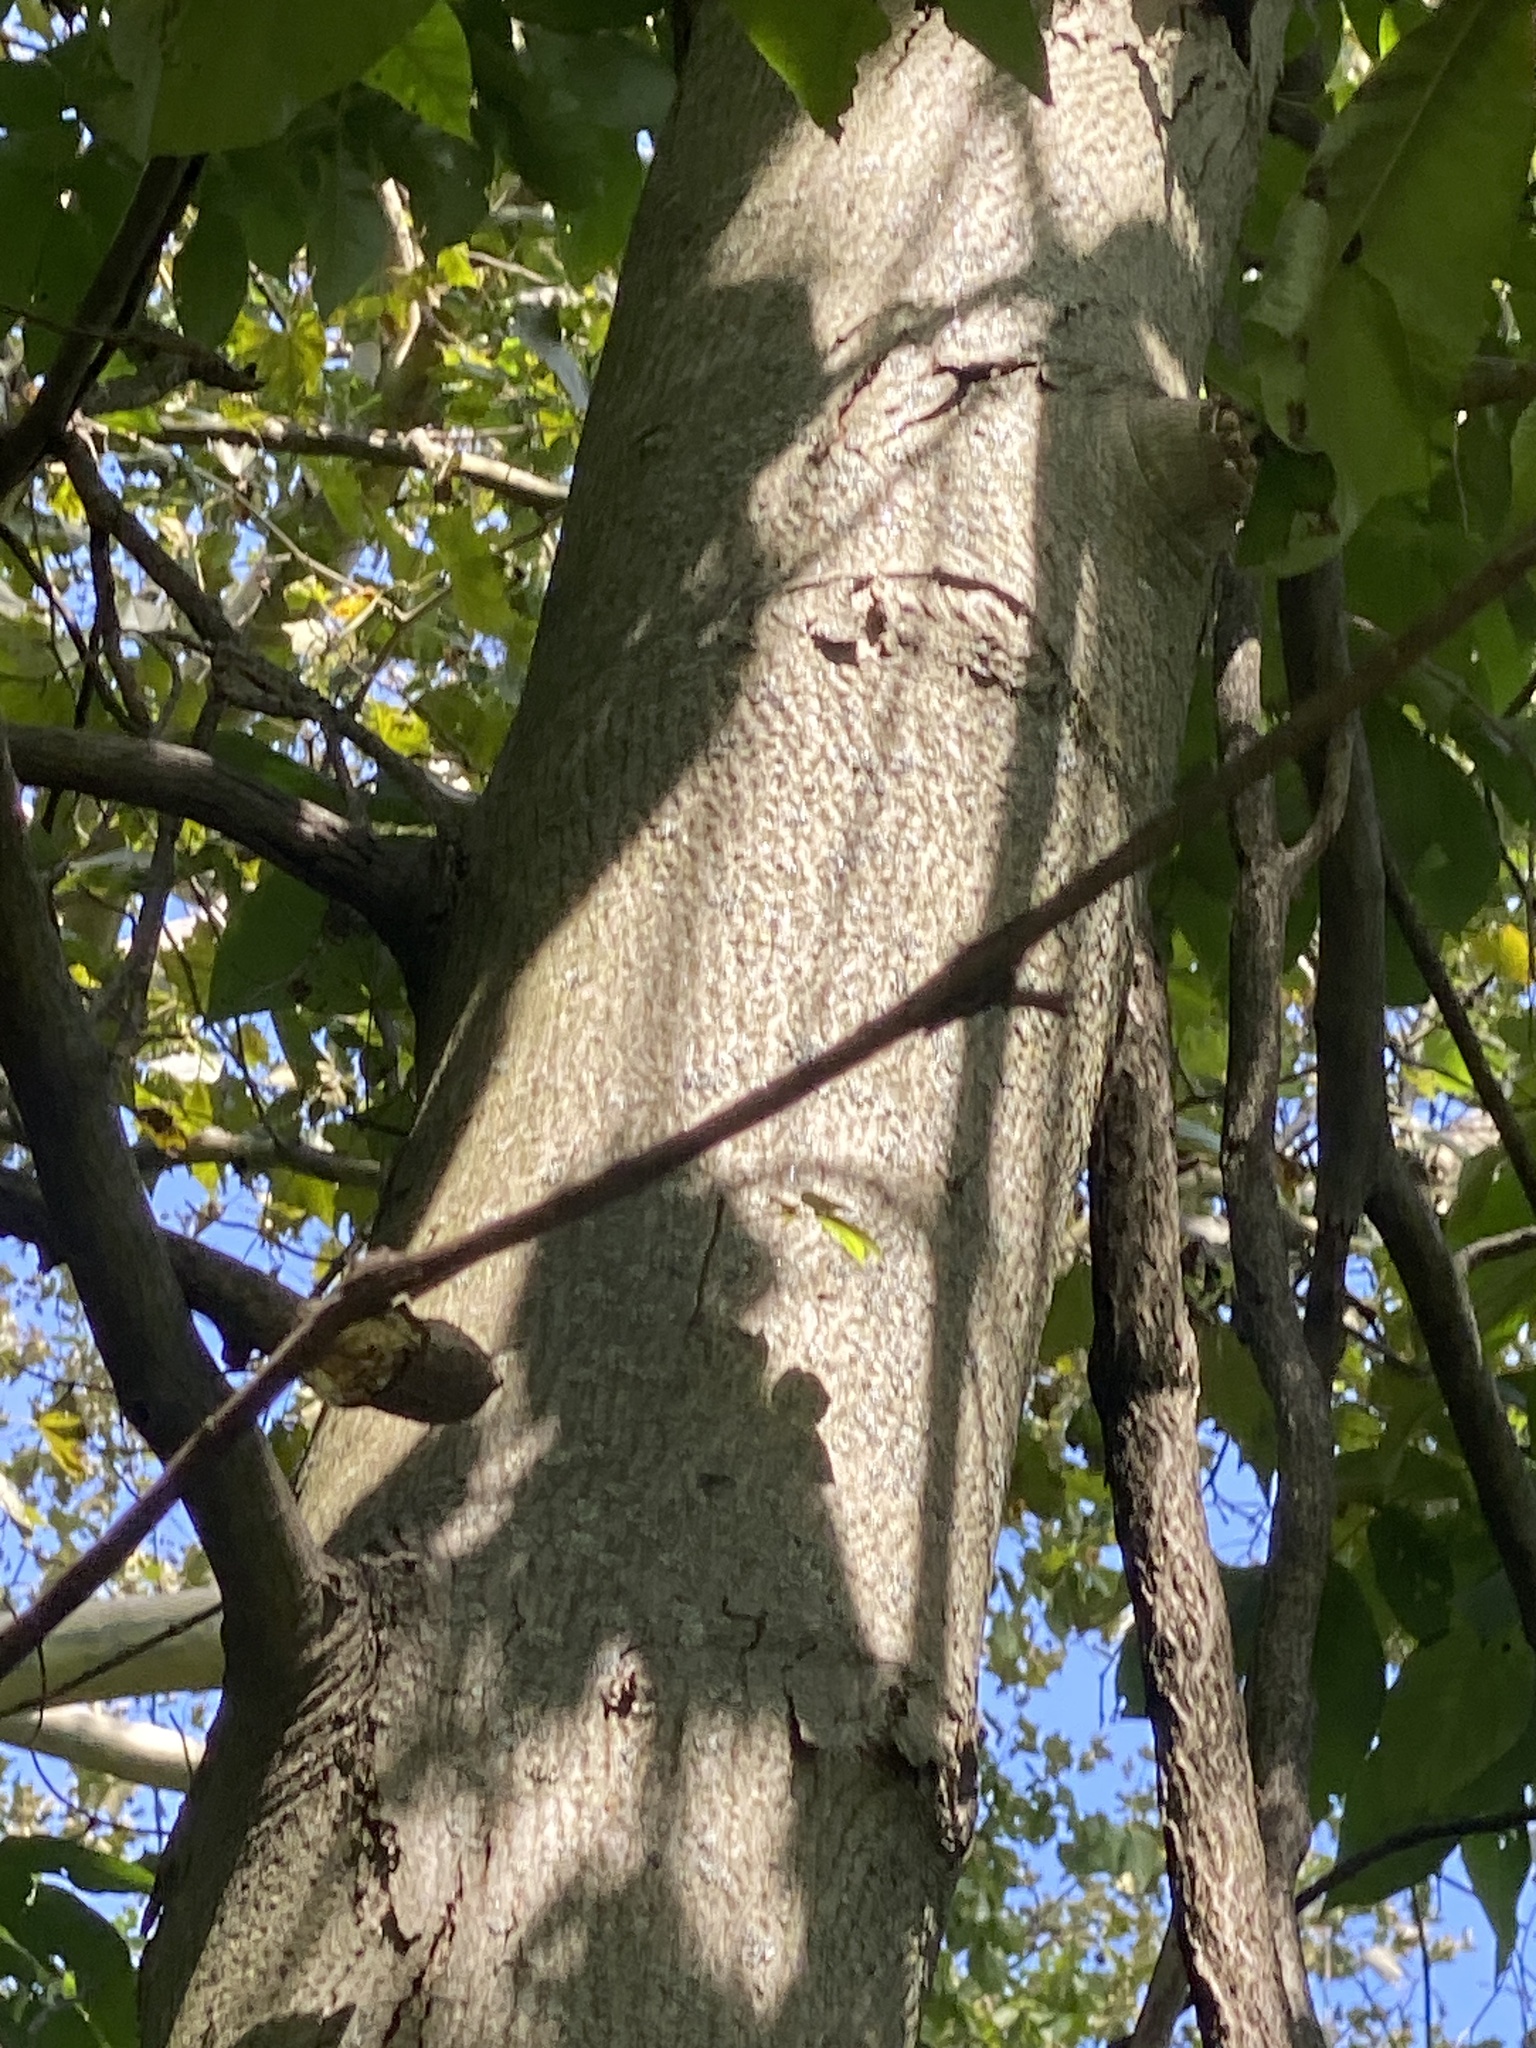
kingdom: Plantae
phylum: Tracheophyta
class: Magnoliopsida
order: Fagales
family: Juglandaceae
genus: Carya
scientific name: Carya ovata
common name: Shagbark hickory
